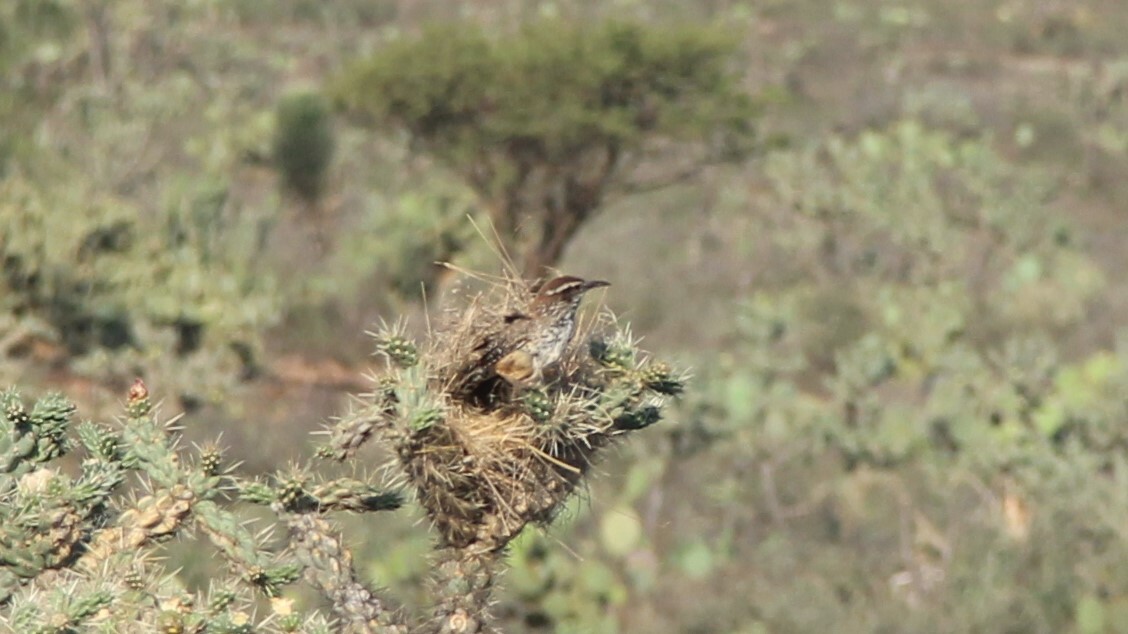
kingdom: Animalia
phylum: Chordata
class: Aves
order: Passeriformes
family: Troglodytidae
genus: Campylorhynchus
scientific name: Campylorhynchus brunneicapillus
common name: Cactus wren
